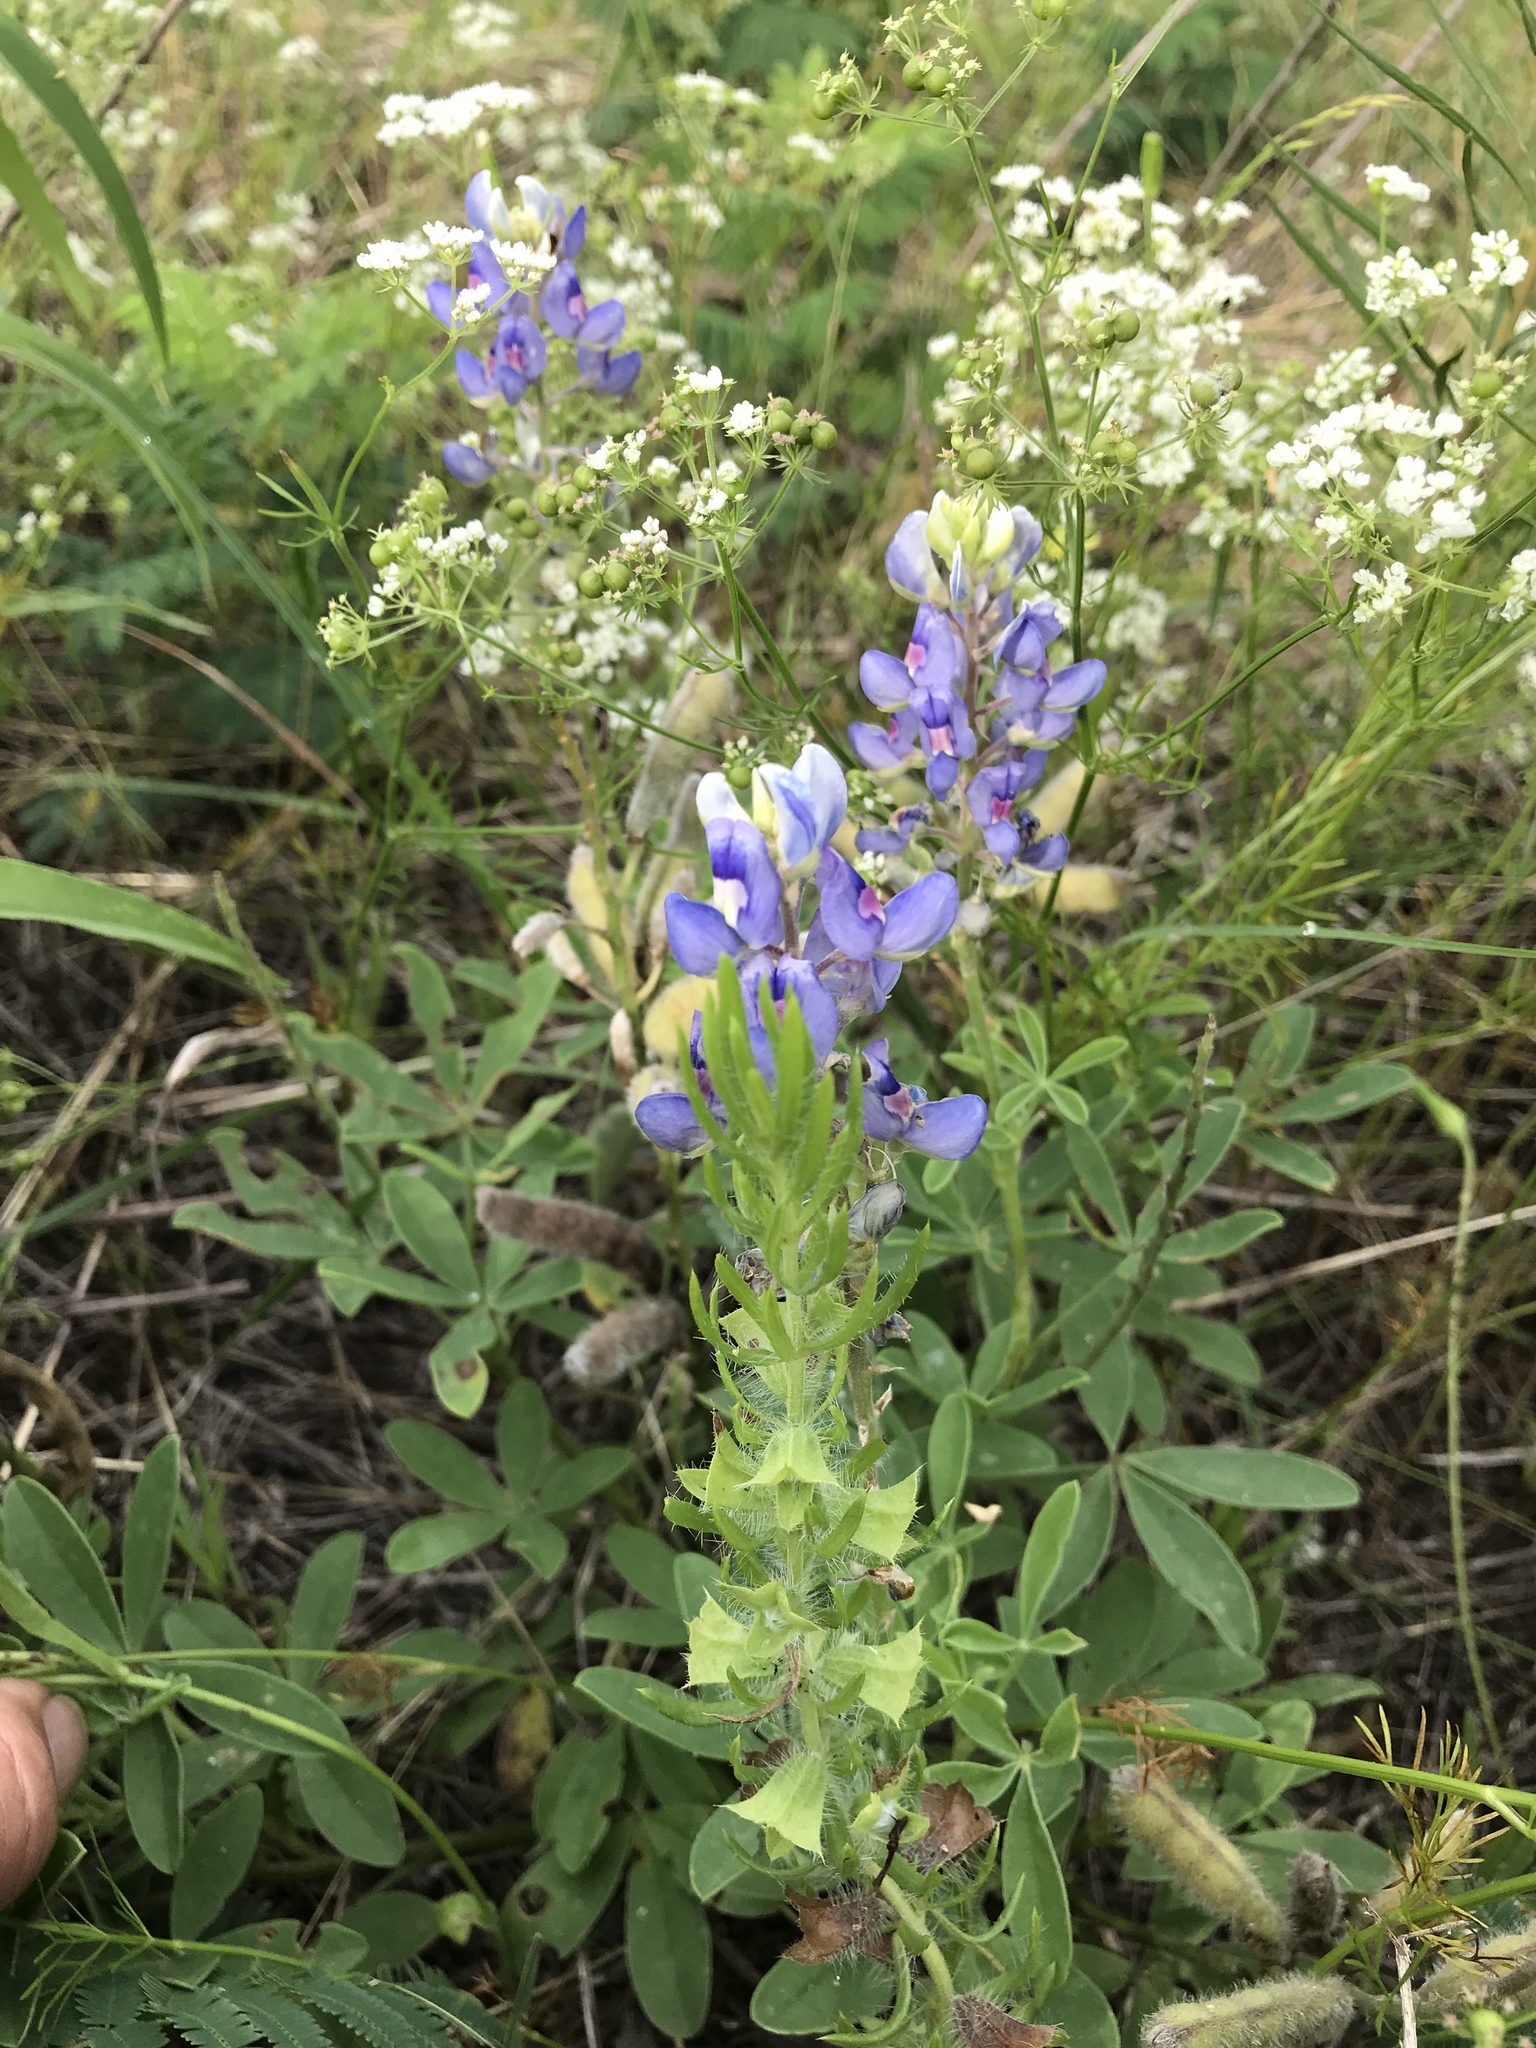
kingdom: Plantae
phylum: Tracheophyta
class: Magnoliopsida
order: Fabales
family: Fabaceae
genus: Lupinus
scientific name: Lupinus texensis
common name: Texas bluebonnet
